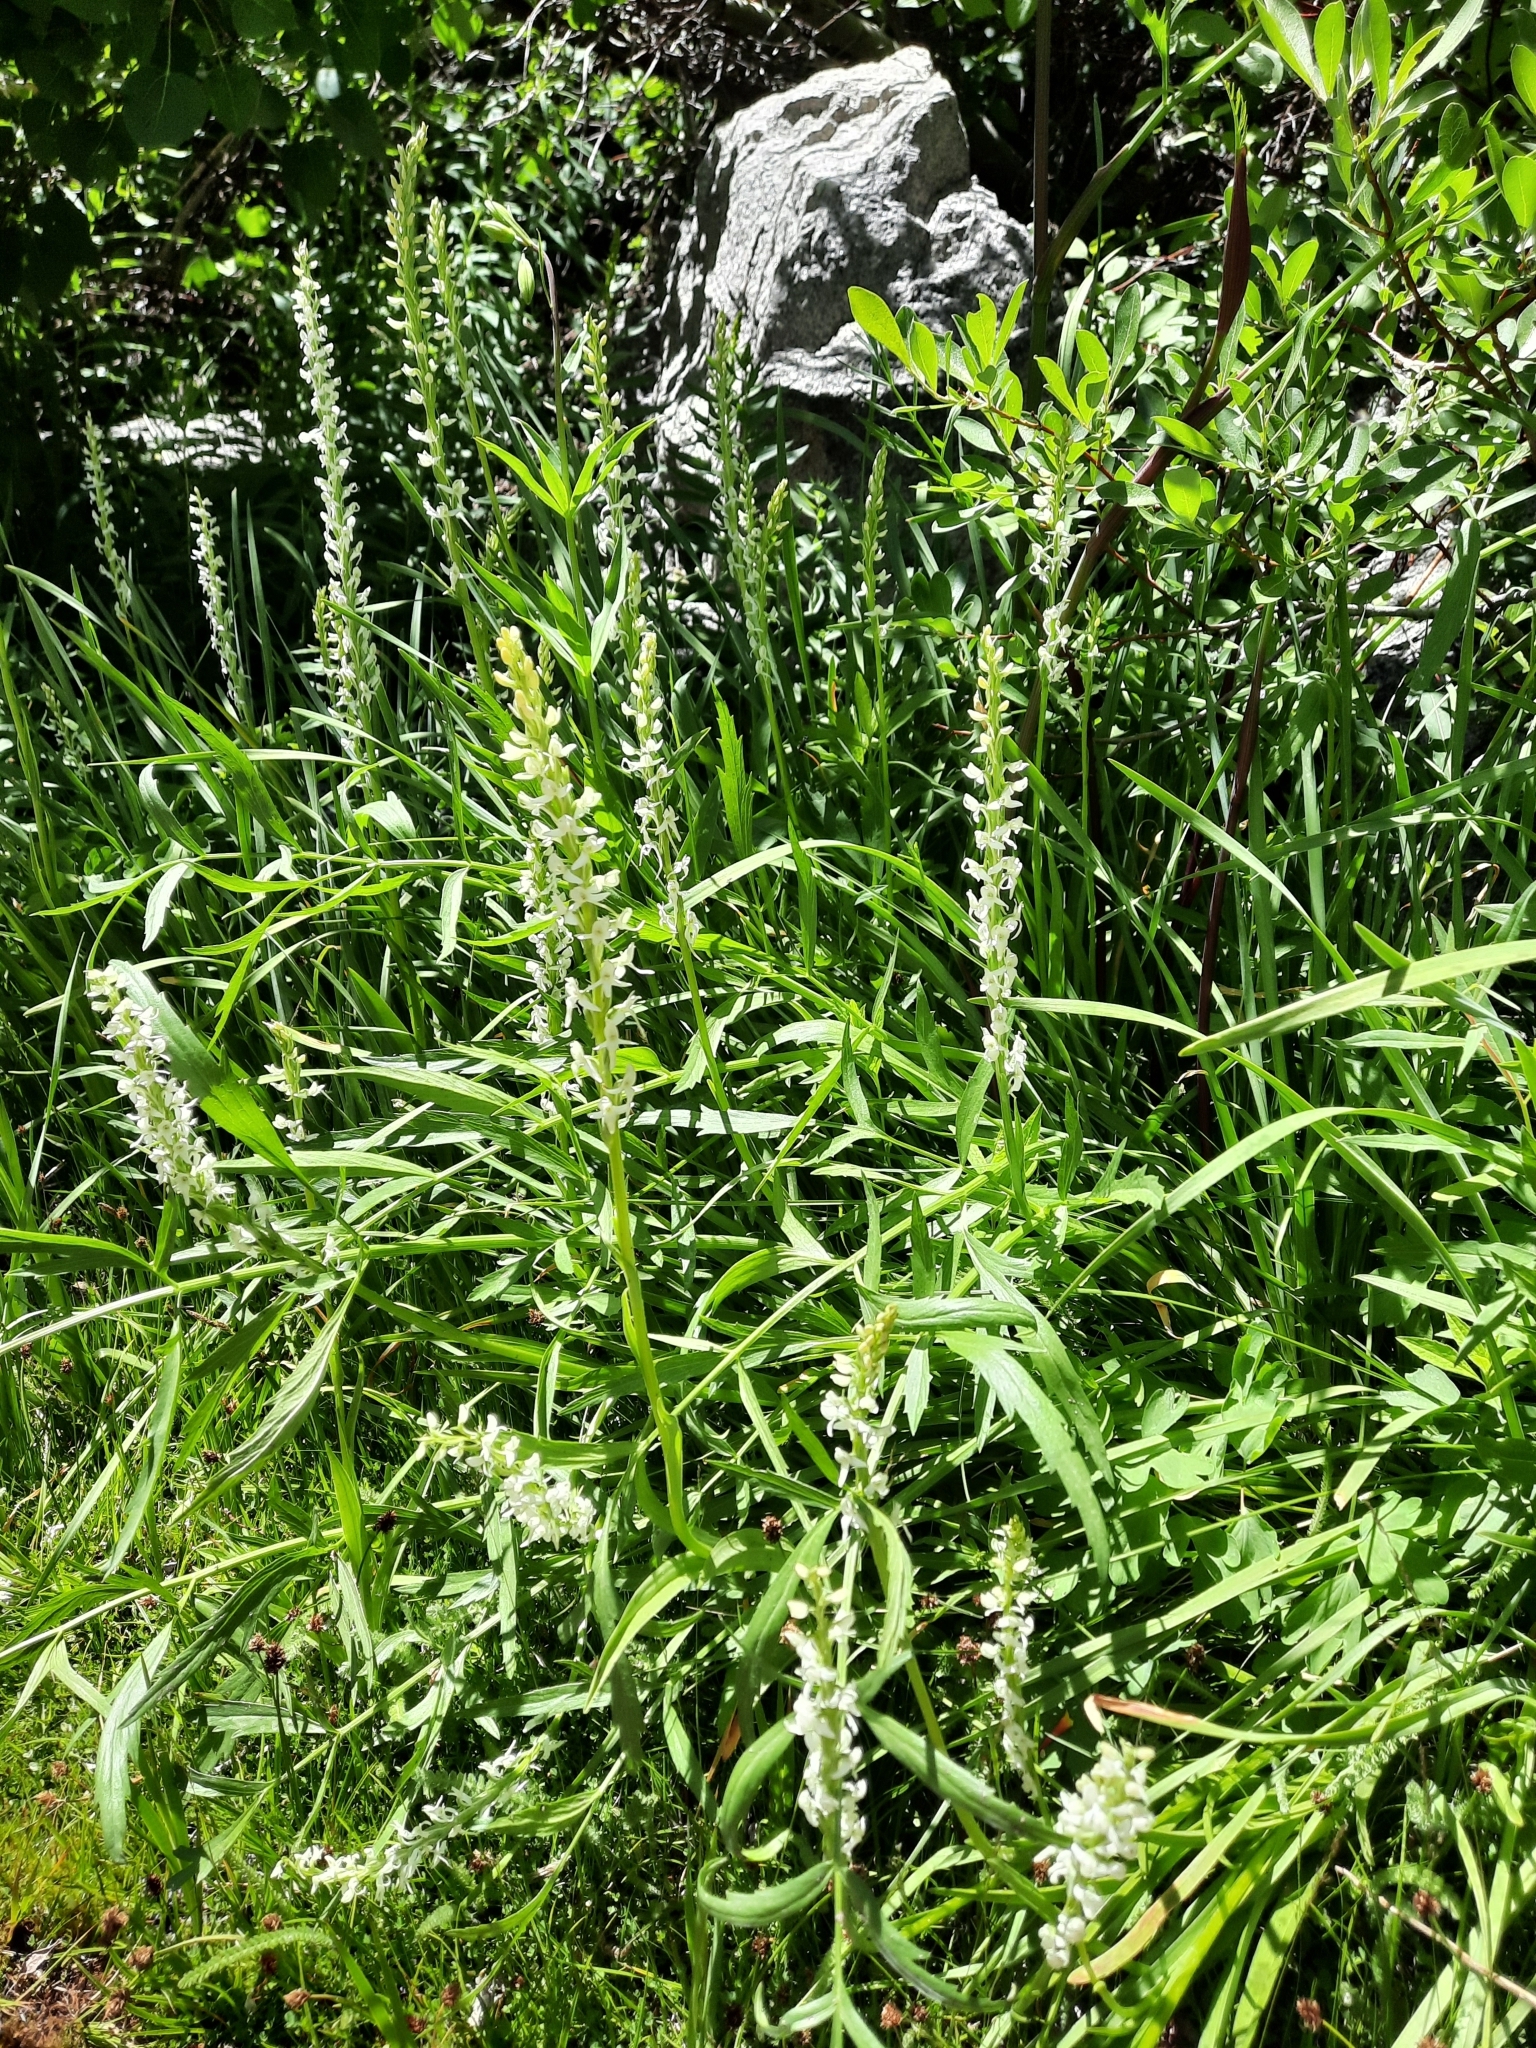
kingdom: Plantae
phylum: Tracheophyta
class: Liliopsida
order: Asparagales
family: Orchidaceae
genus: Platanthera
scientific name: Platanthera dilatata
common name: Bog candles
